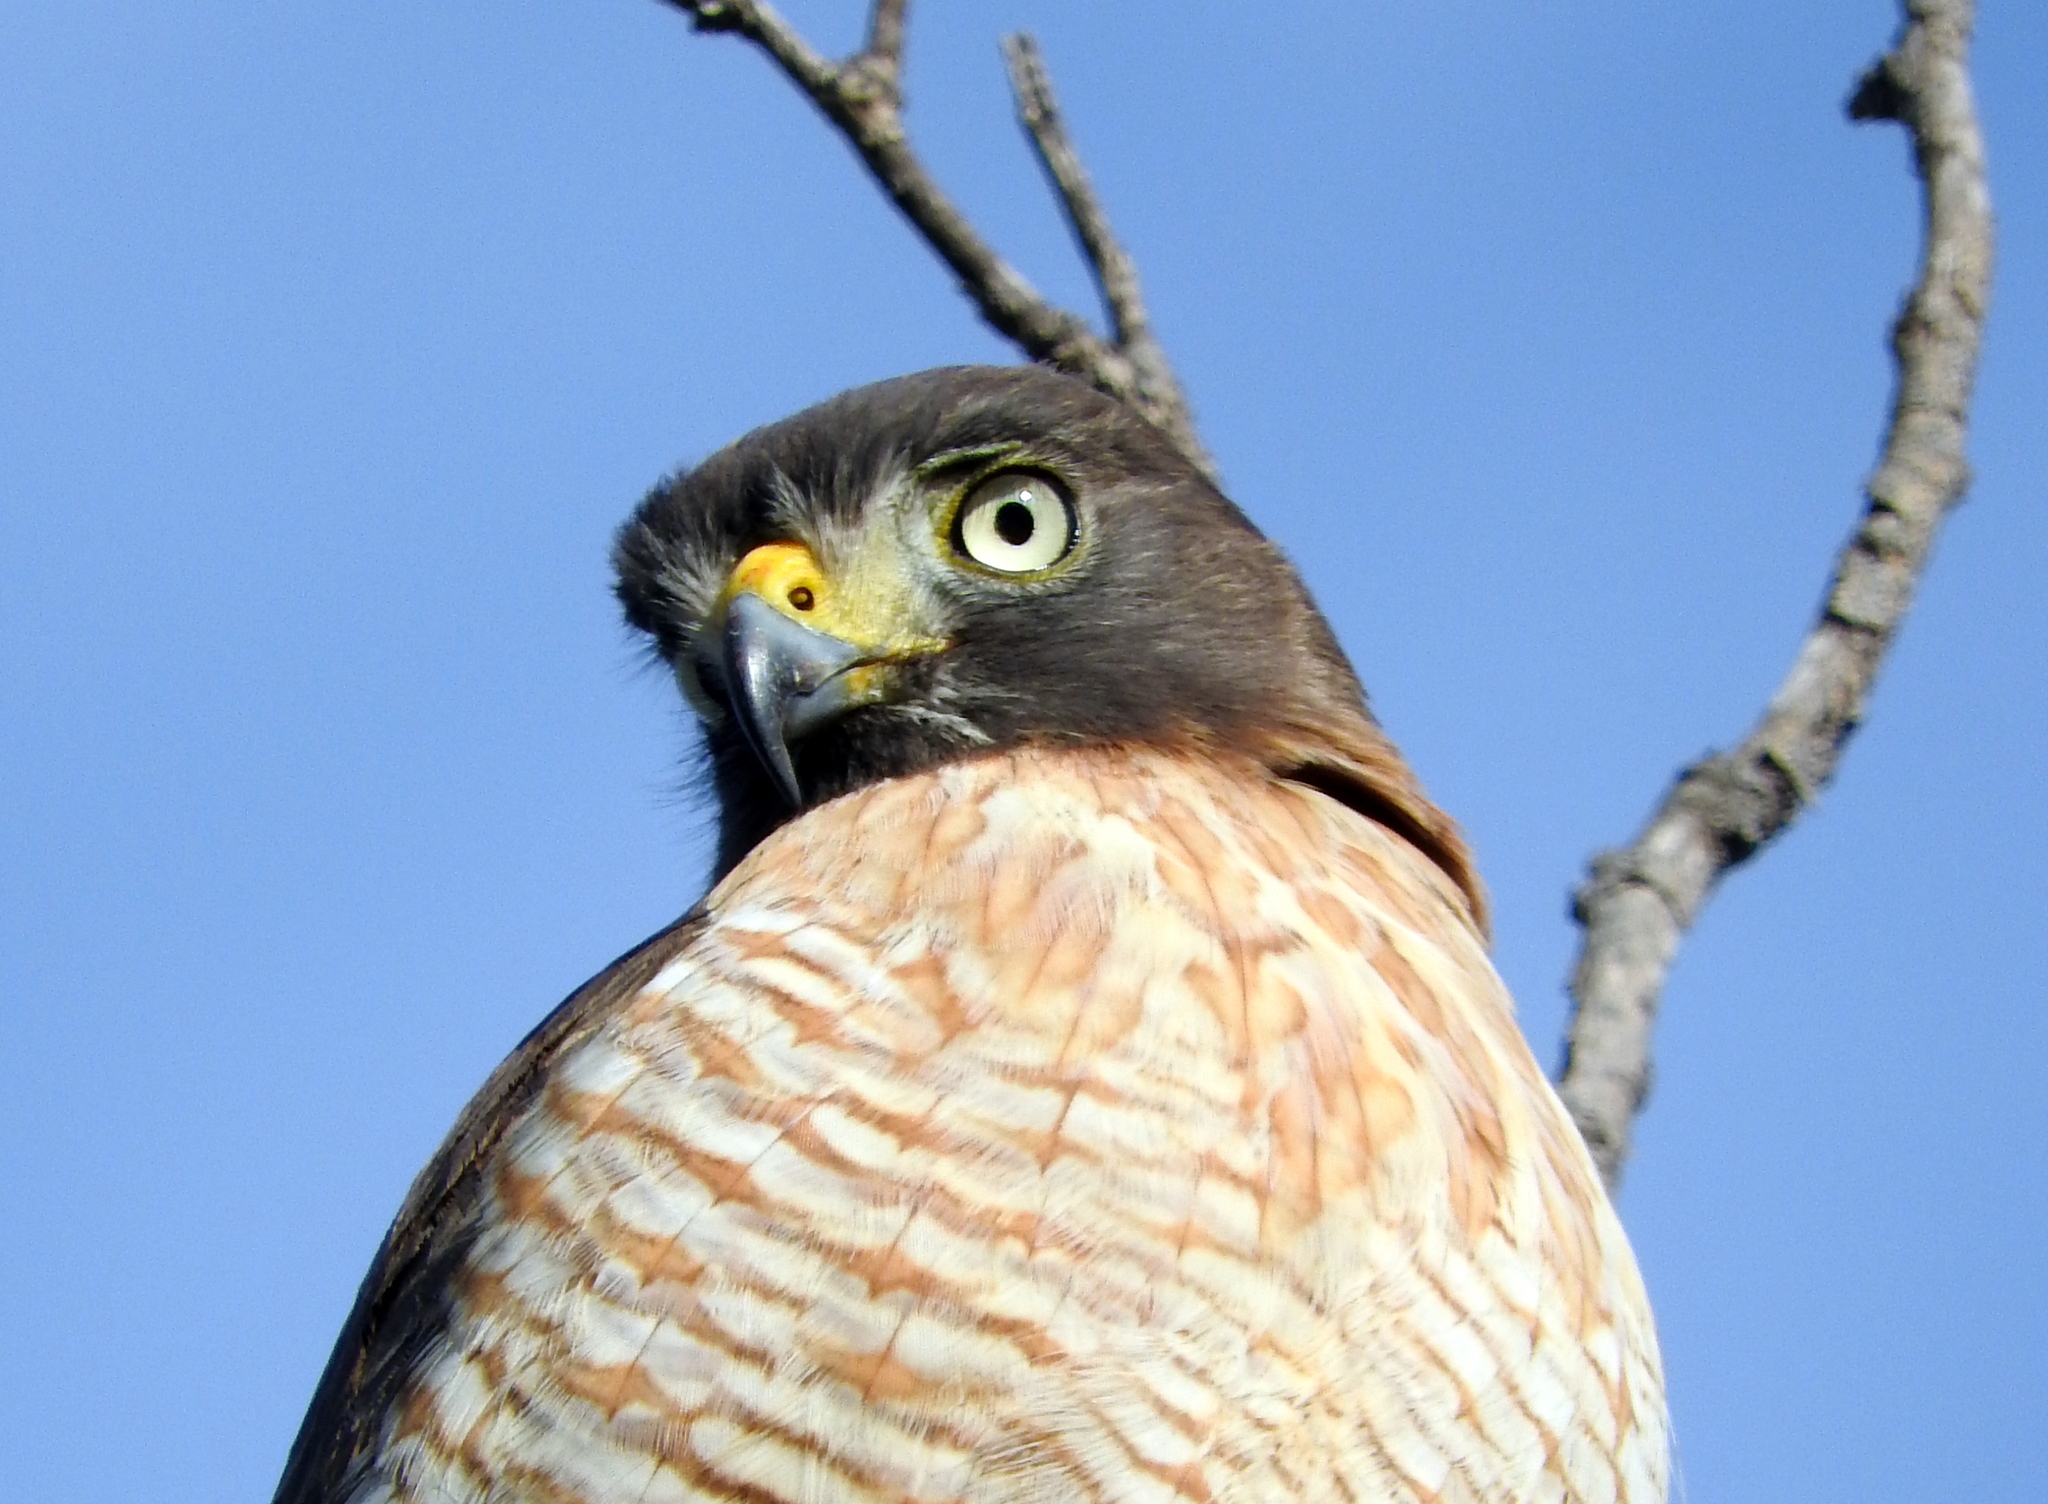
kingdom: Animalia
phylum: Chordata
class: Aves
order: Accipitriformes
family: Accipitridae
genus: Rupornis
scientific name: Rupornis magnirostris
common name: Roadside hawk
